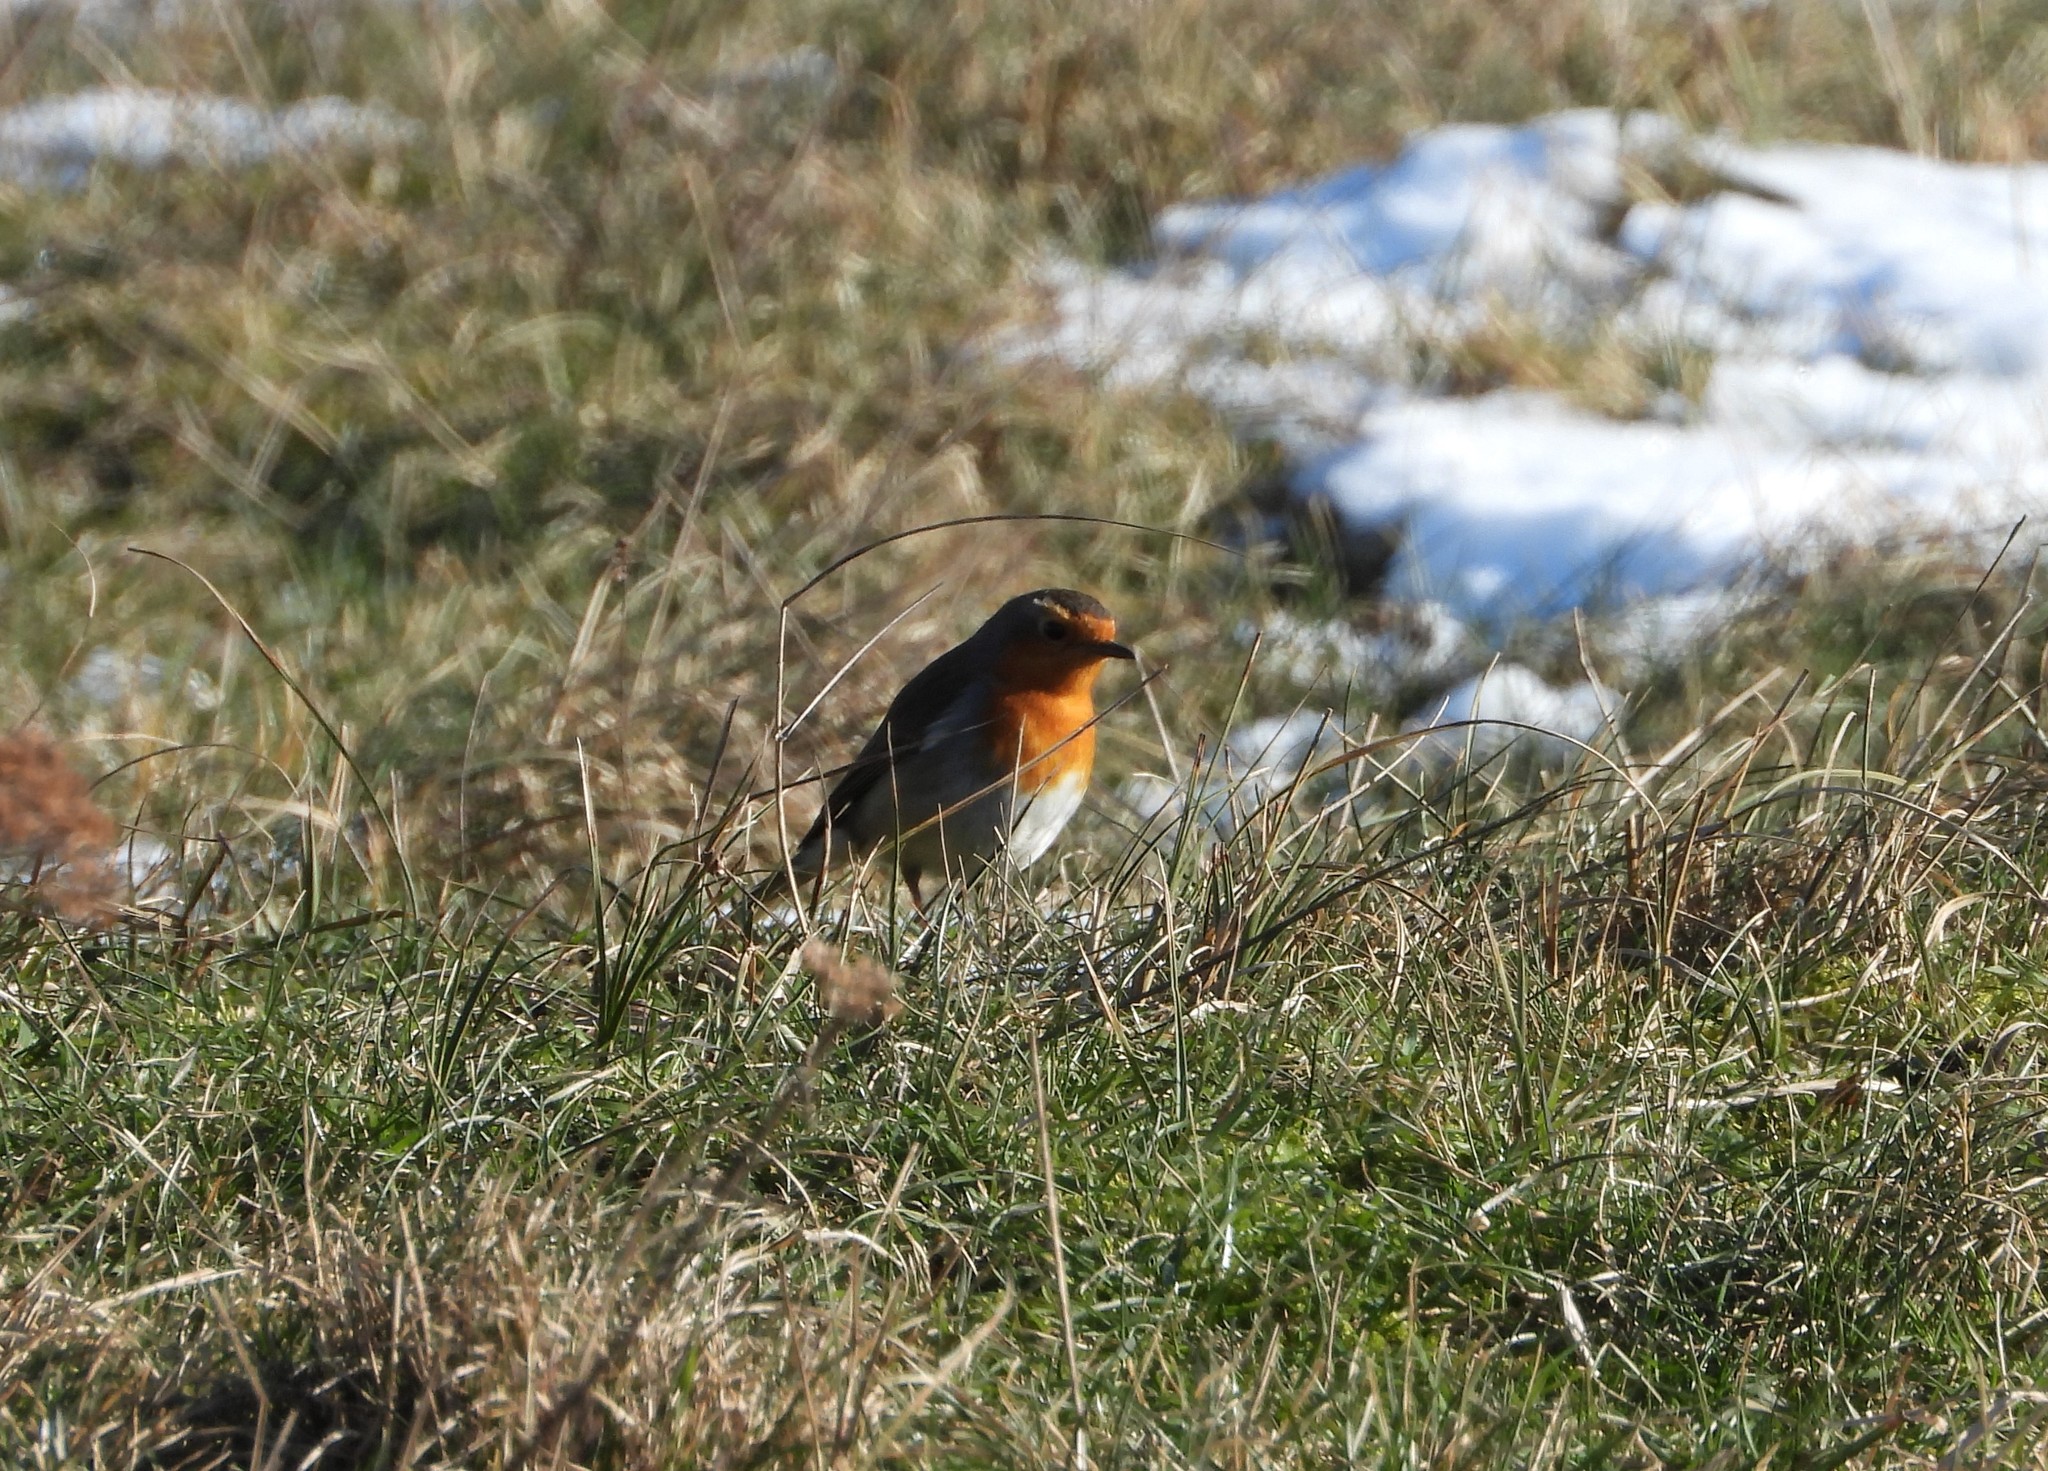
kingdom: Animalia
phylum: Chordata
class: Aves
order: Passeriformes
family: Muscicapidae
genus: Erithacus
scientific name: Erithacus rubecula
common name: European robin
